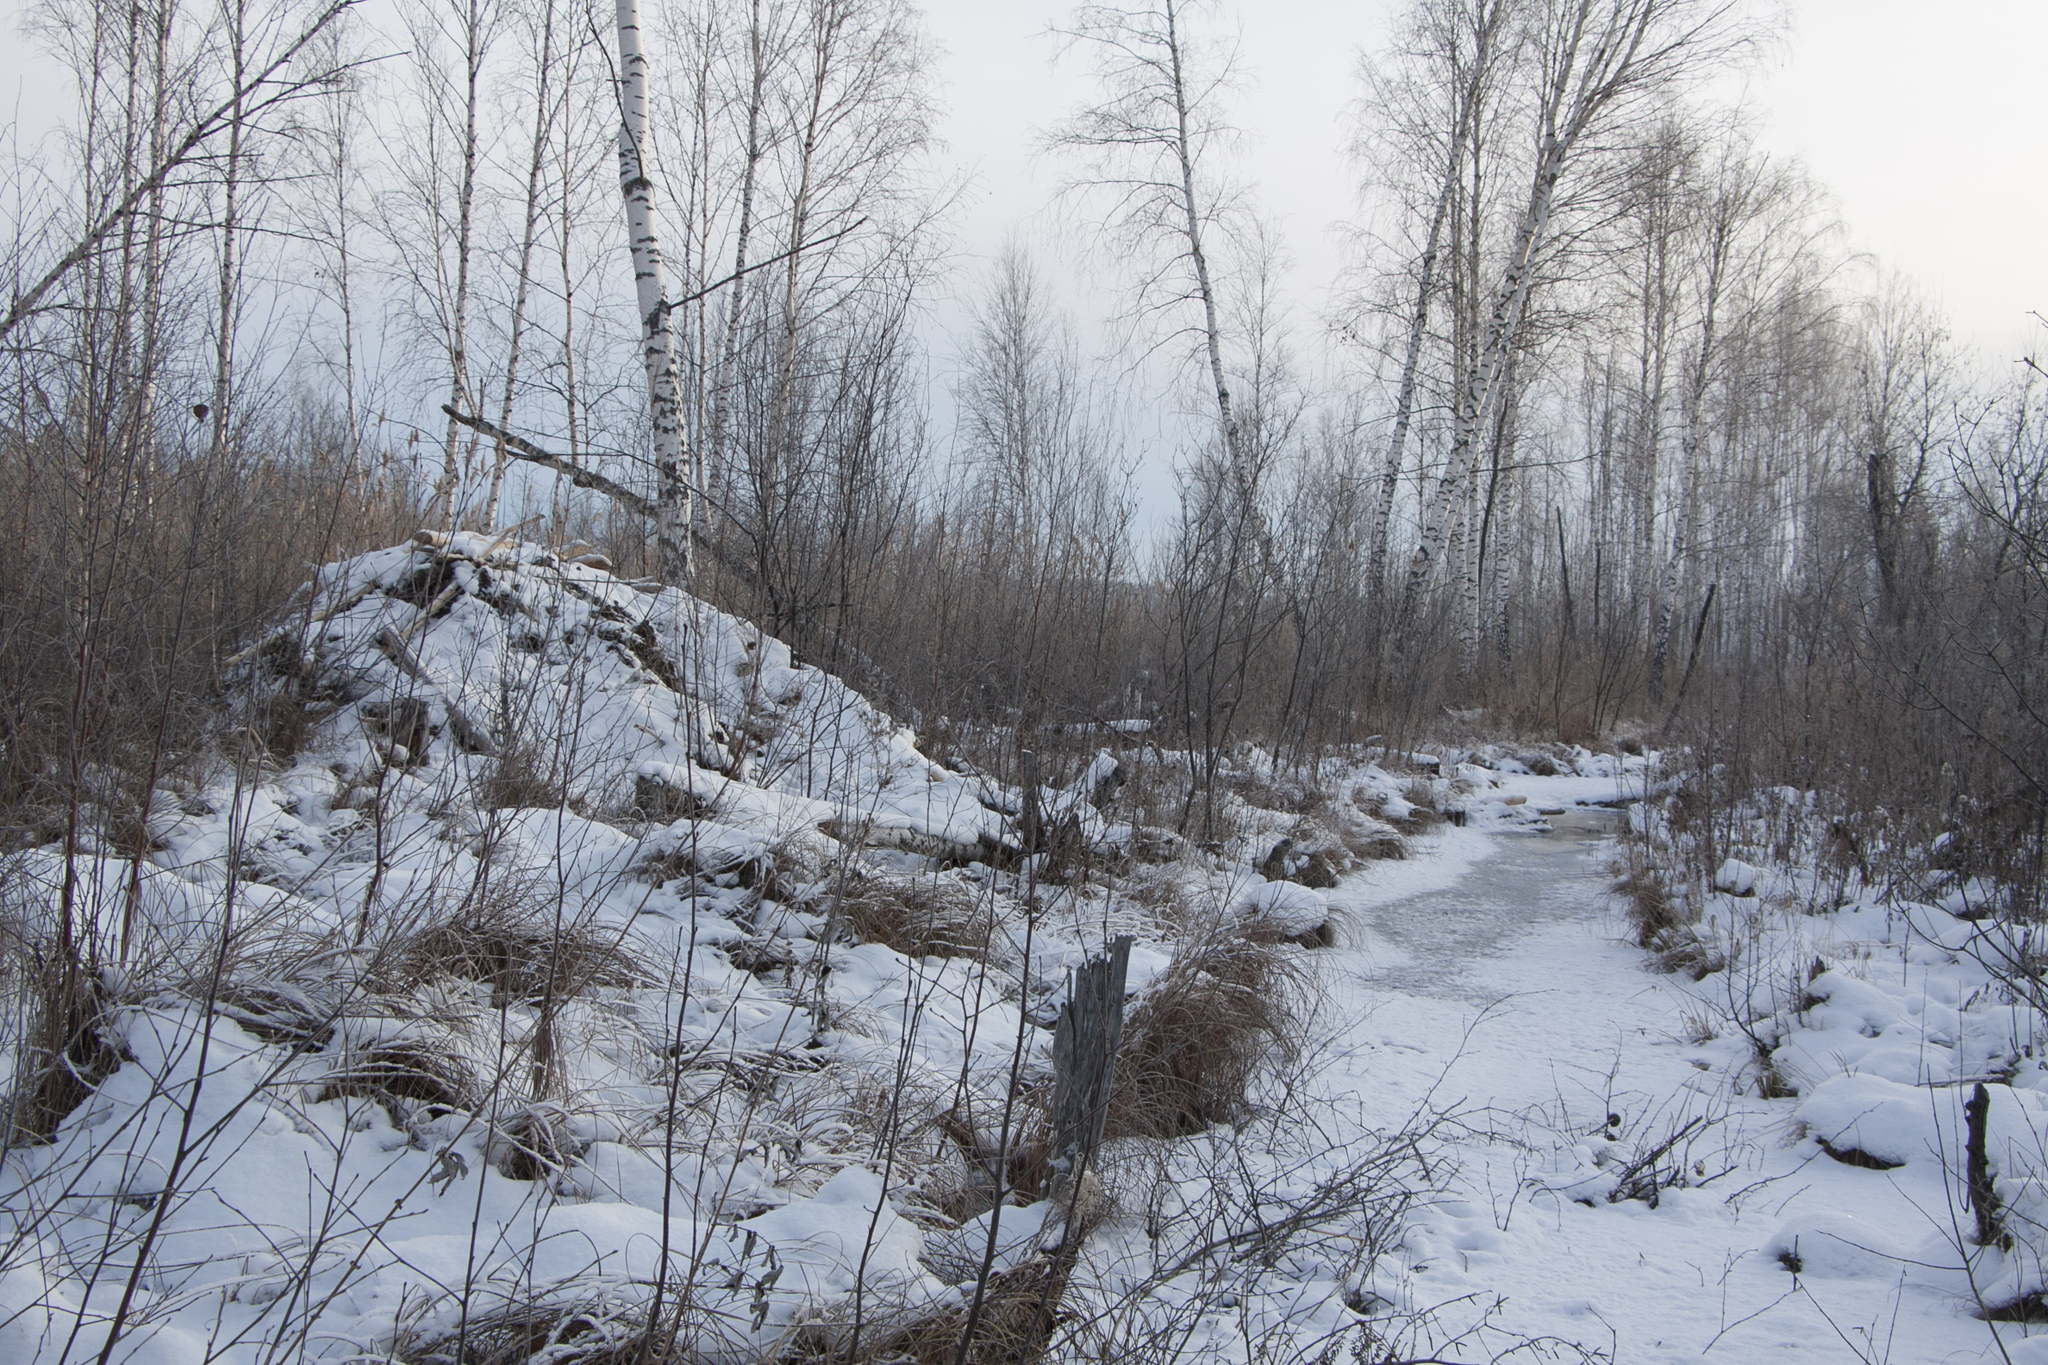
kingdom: Animalia
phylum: Chordata
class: Mammalia
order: Rodentia
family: Castoridae
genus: Castor
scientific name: Castor fiber
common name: Eurasian beaver
